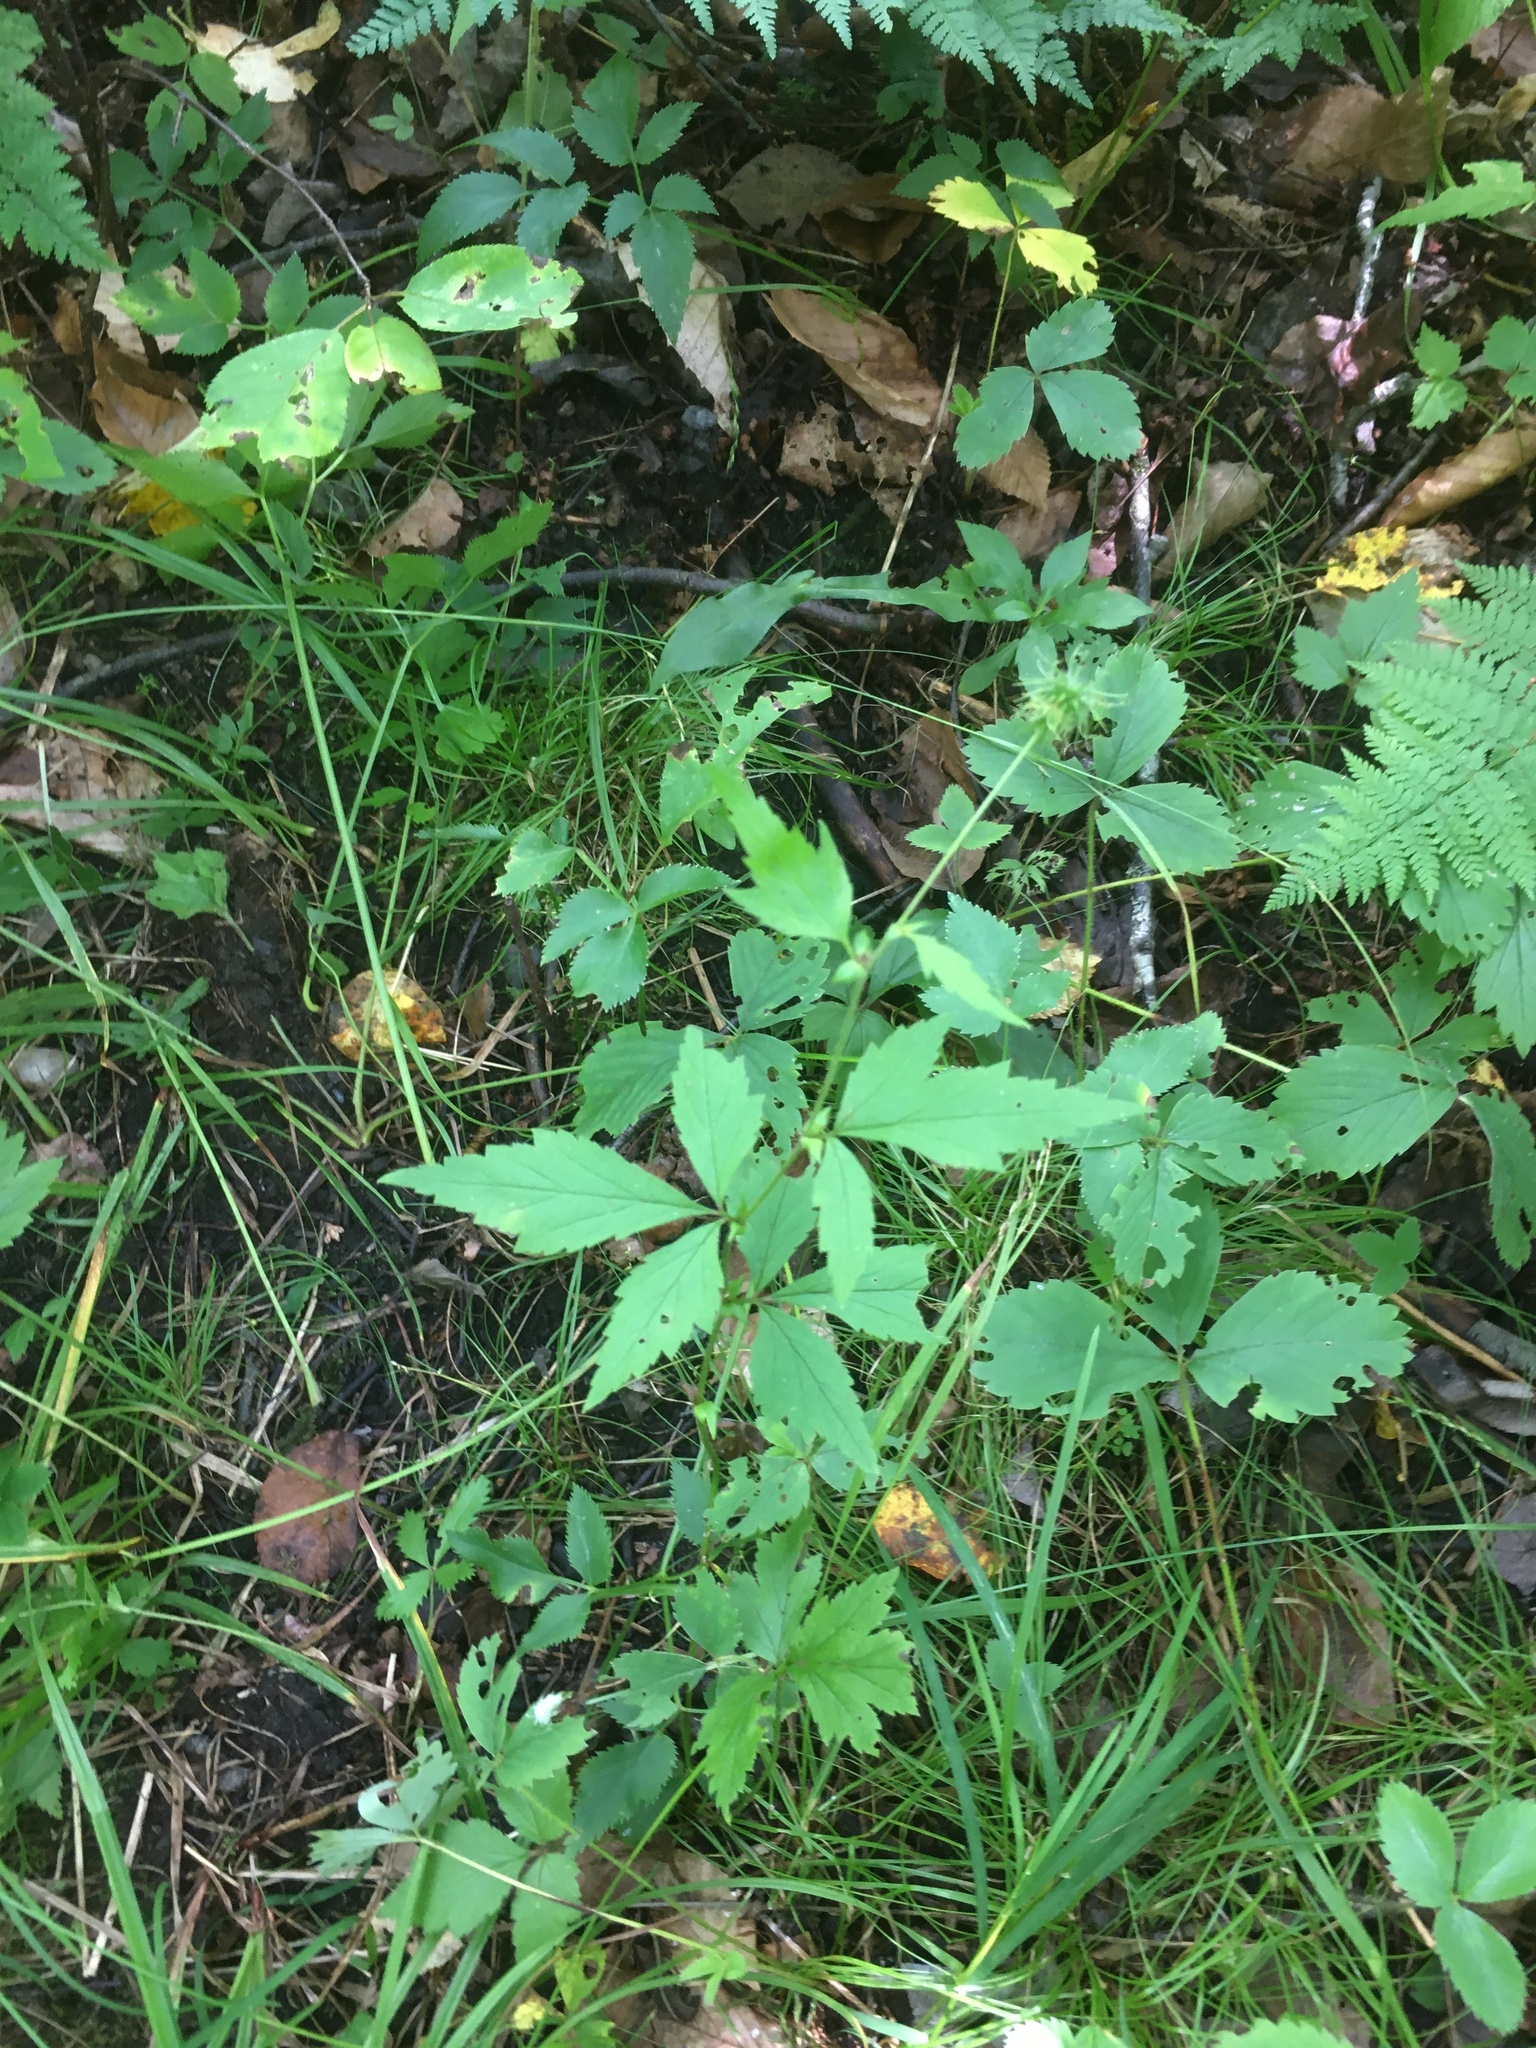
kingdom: Plantae
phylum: Tracheophyta
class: Magnoliopsida
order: Rosales
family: Rosaceae
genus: Geum
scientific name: Geum canadense
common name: White avens
